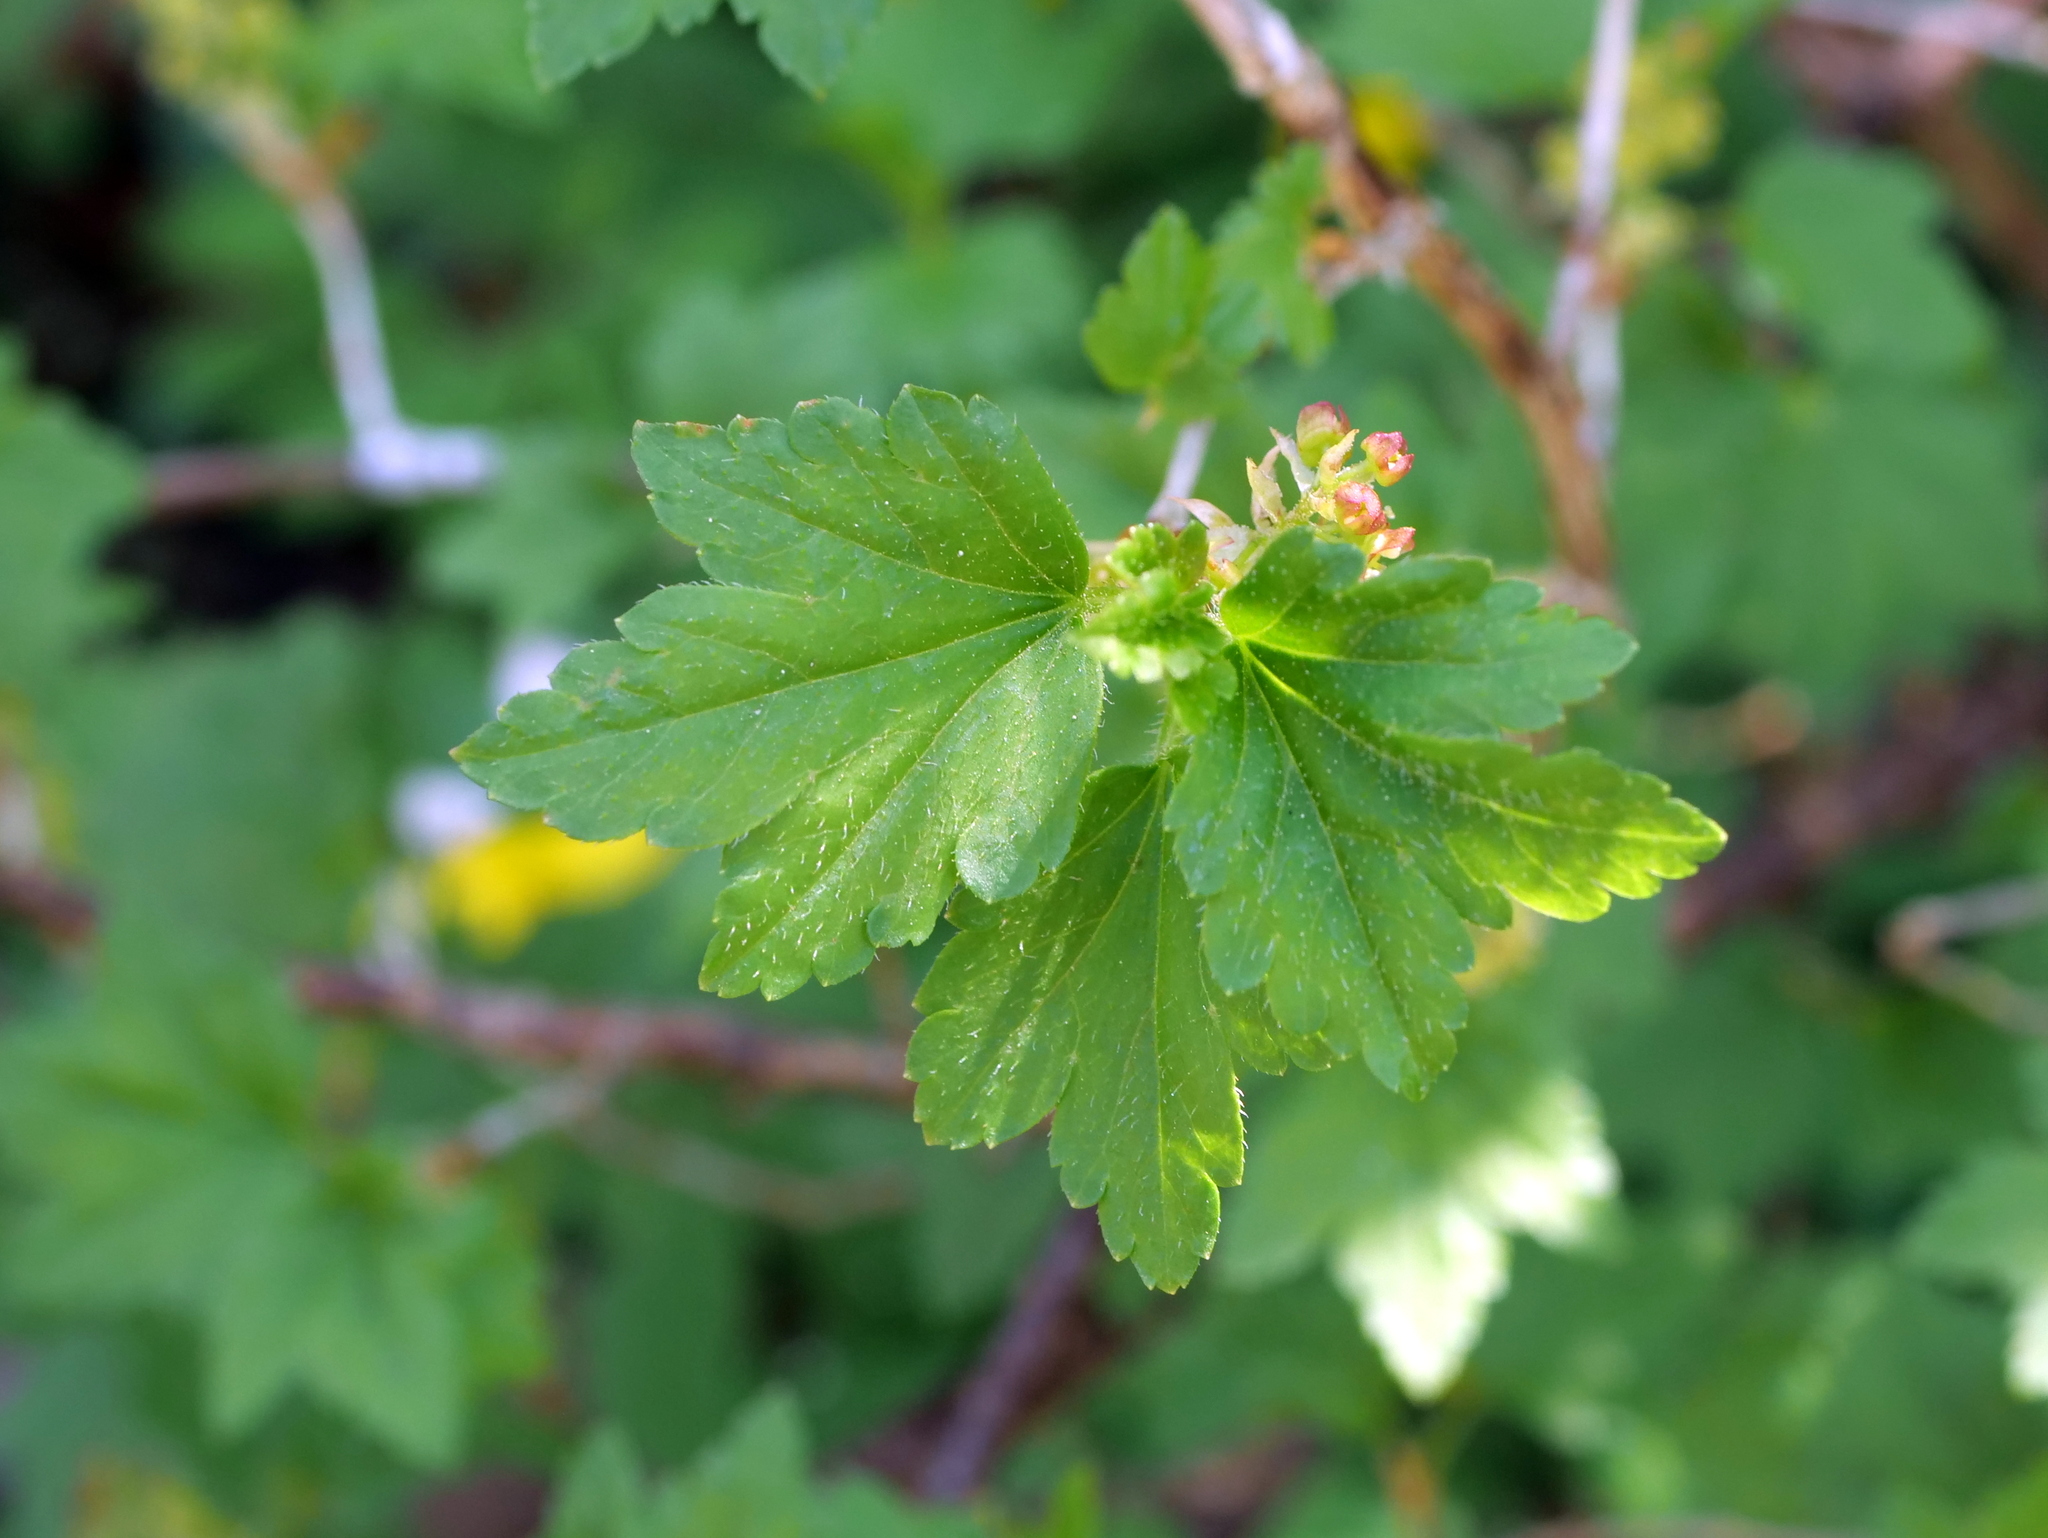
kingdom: Plantae
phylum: Tracheophyta
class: Magnoliopsida
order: Saxifragales
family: Grossulariaceae
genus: Ribes
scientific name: Ribes alpinum
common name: Alpine currant
